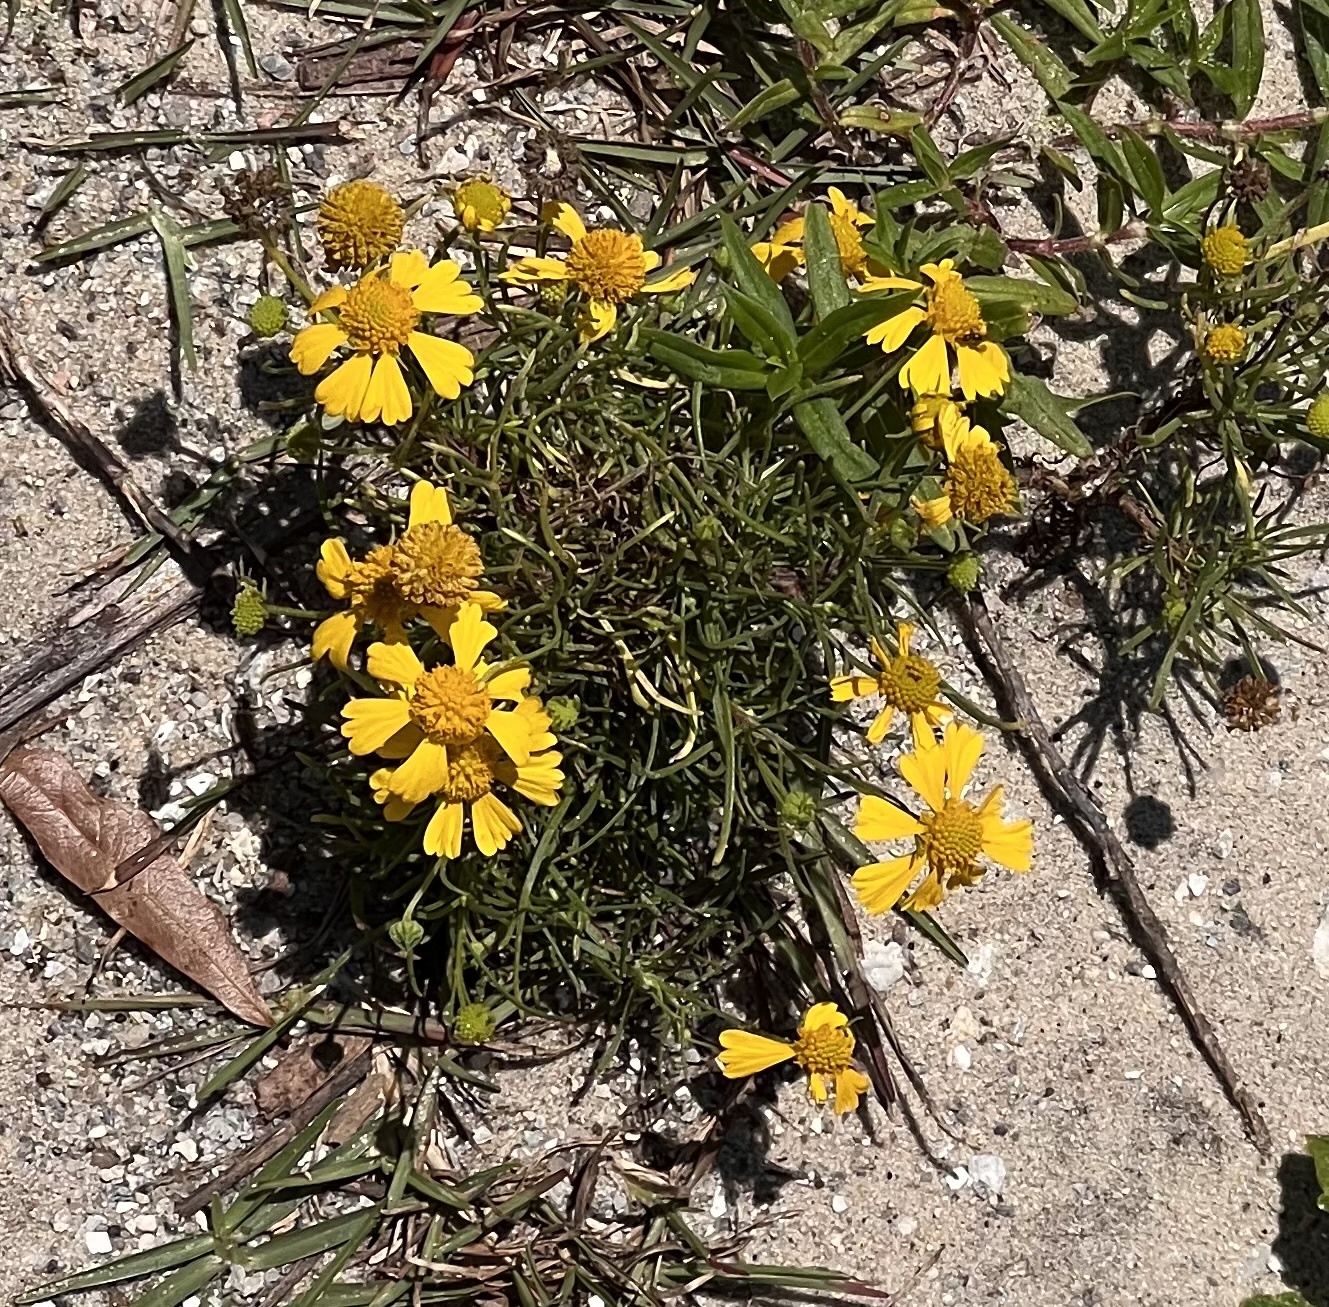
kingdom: Plantae
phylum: Tracheophyta
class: Magnoliopsida
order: Asterales
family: Asteraceae
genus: Helenium
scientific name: Helenium amarum
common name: Bitter sneezeweed
